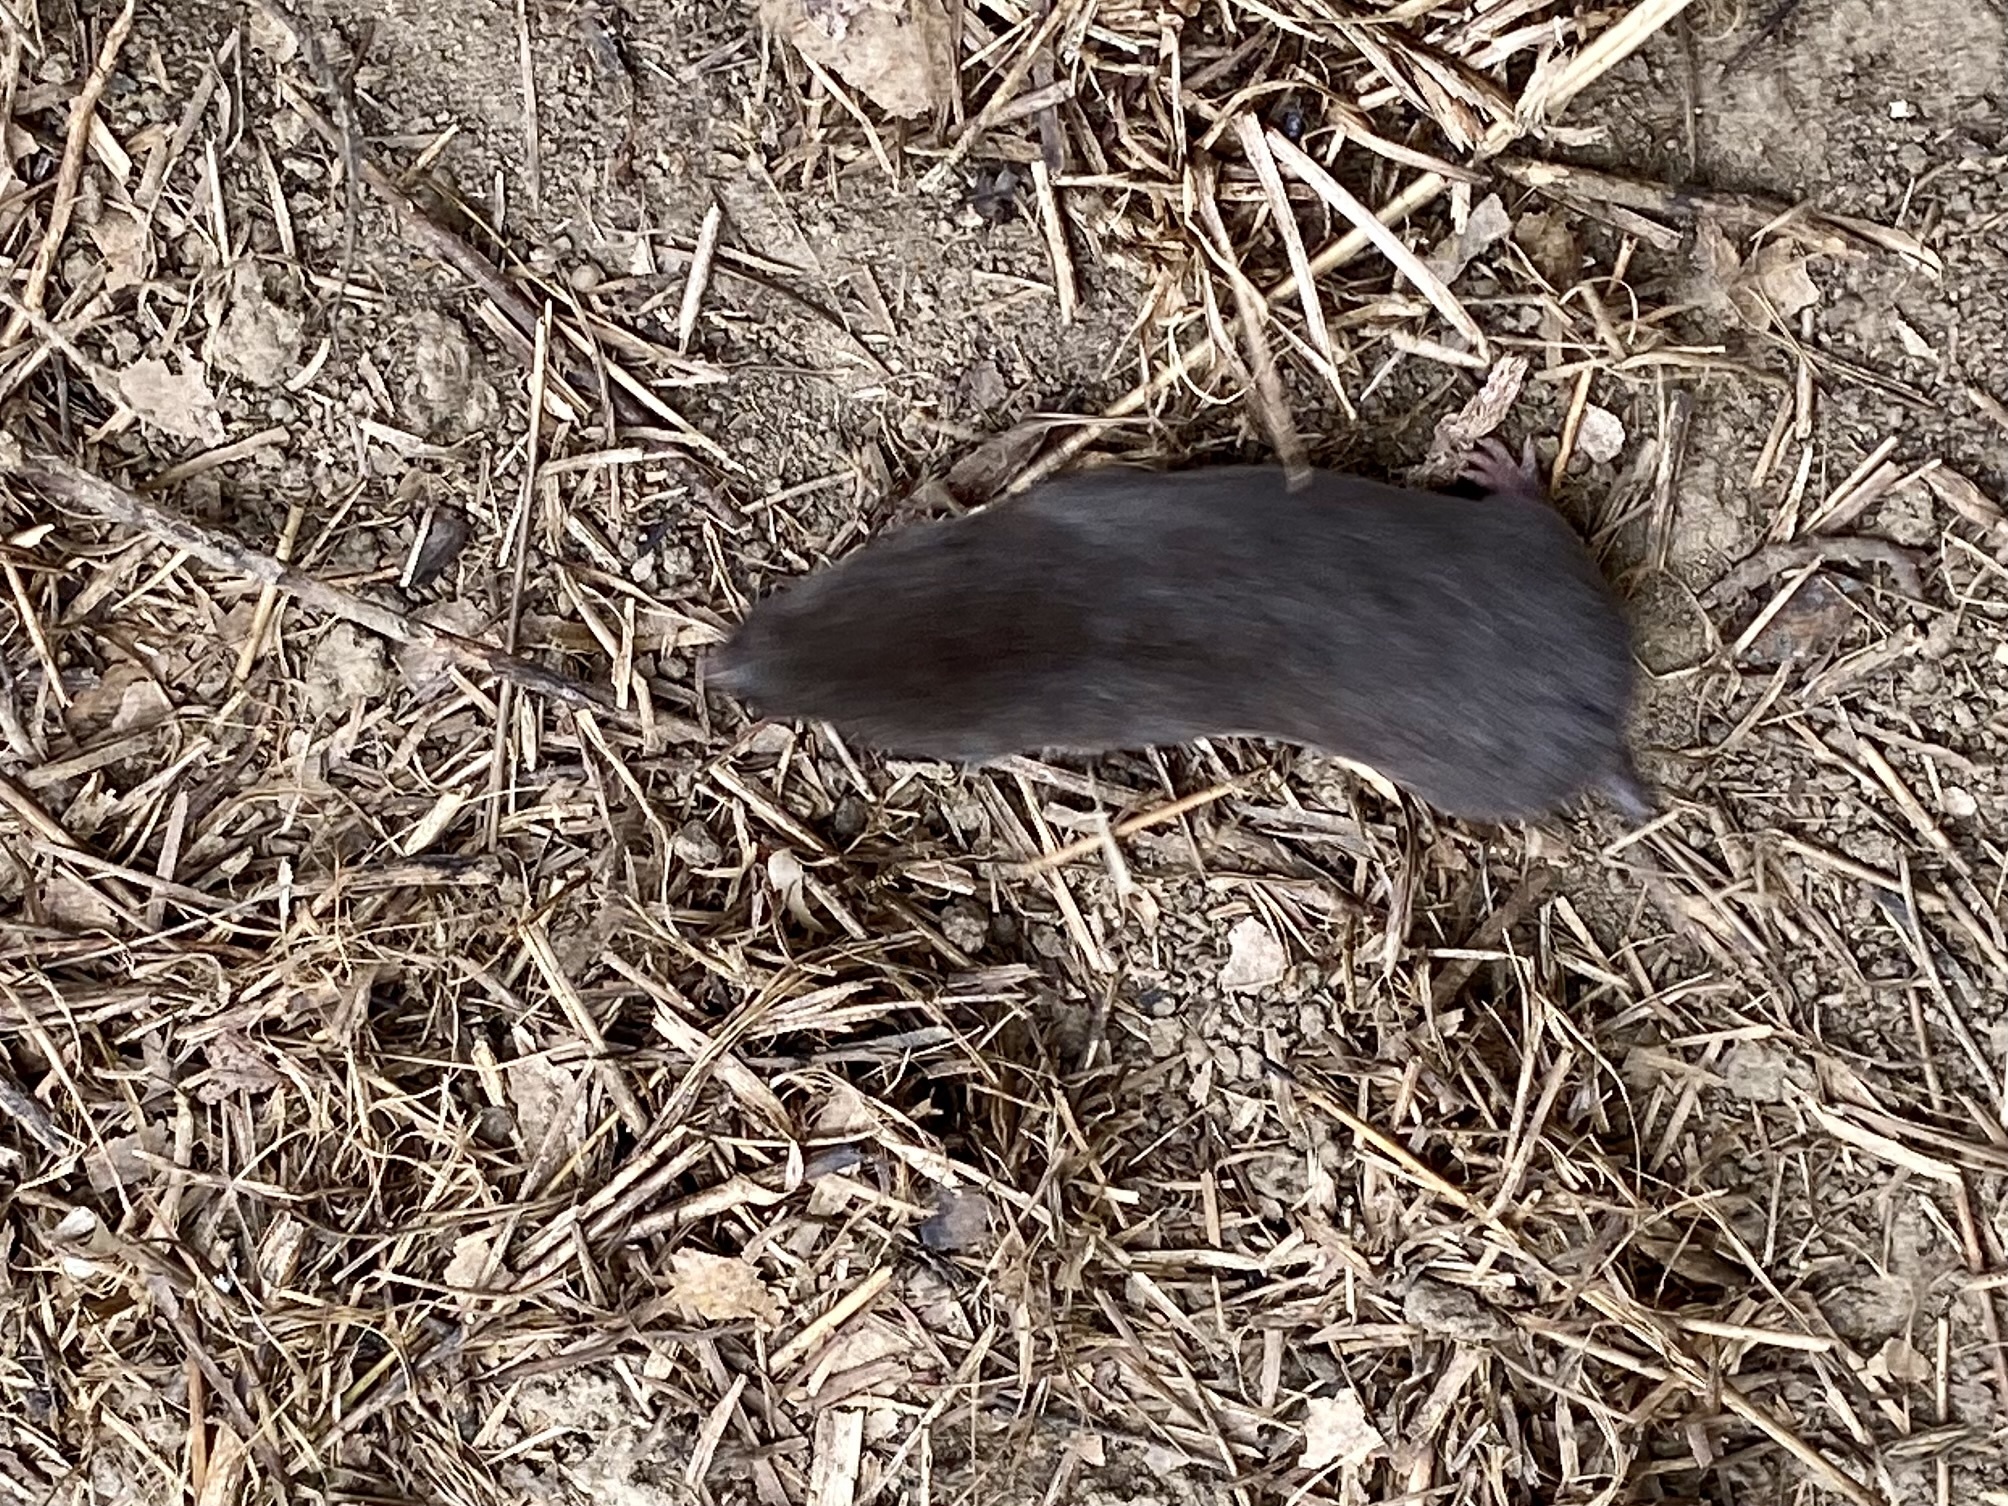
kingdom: Animalia
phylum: Chordata
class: Mammalia
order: Rodentia
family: Cricetidae
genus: Microtus
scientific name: Microtus pennsylvanicus
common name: Meadow vole
